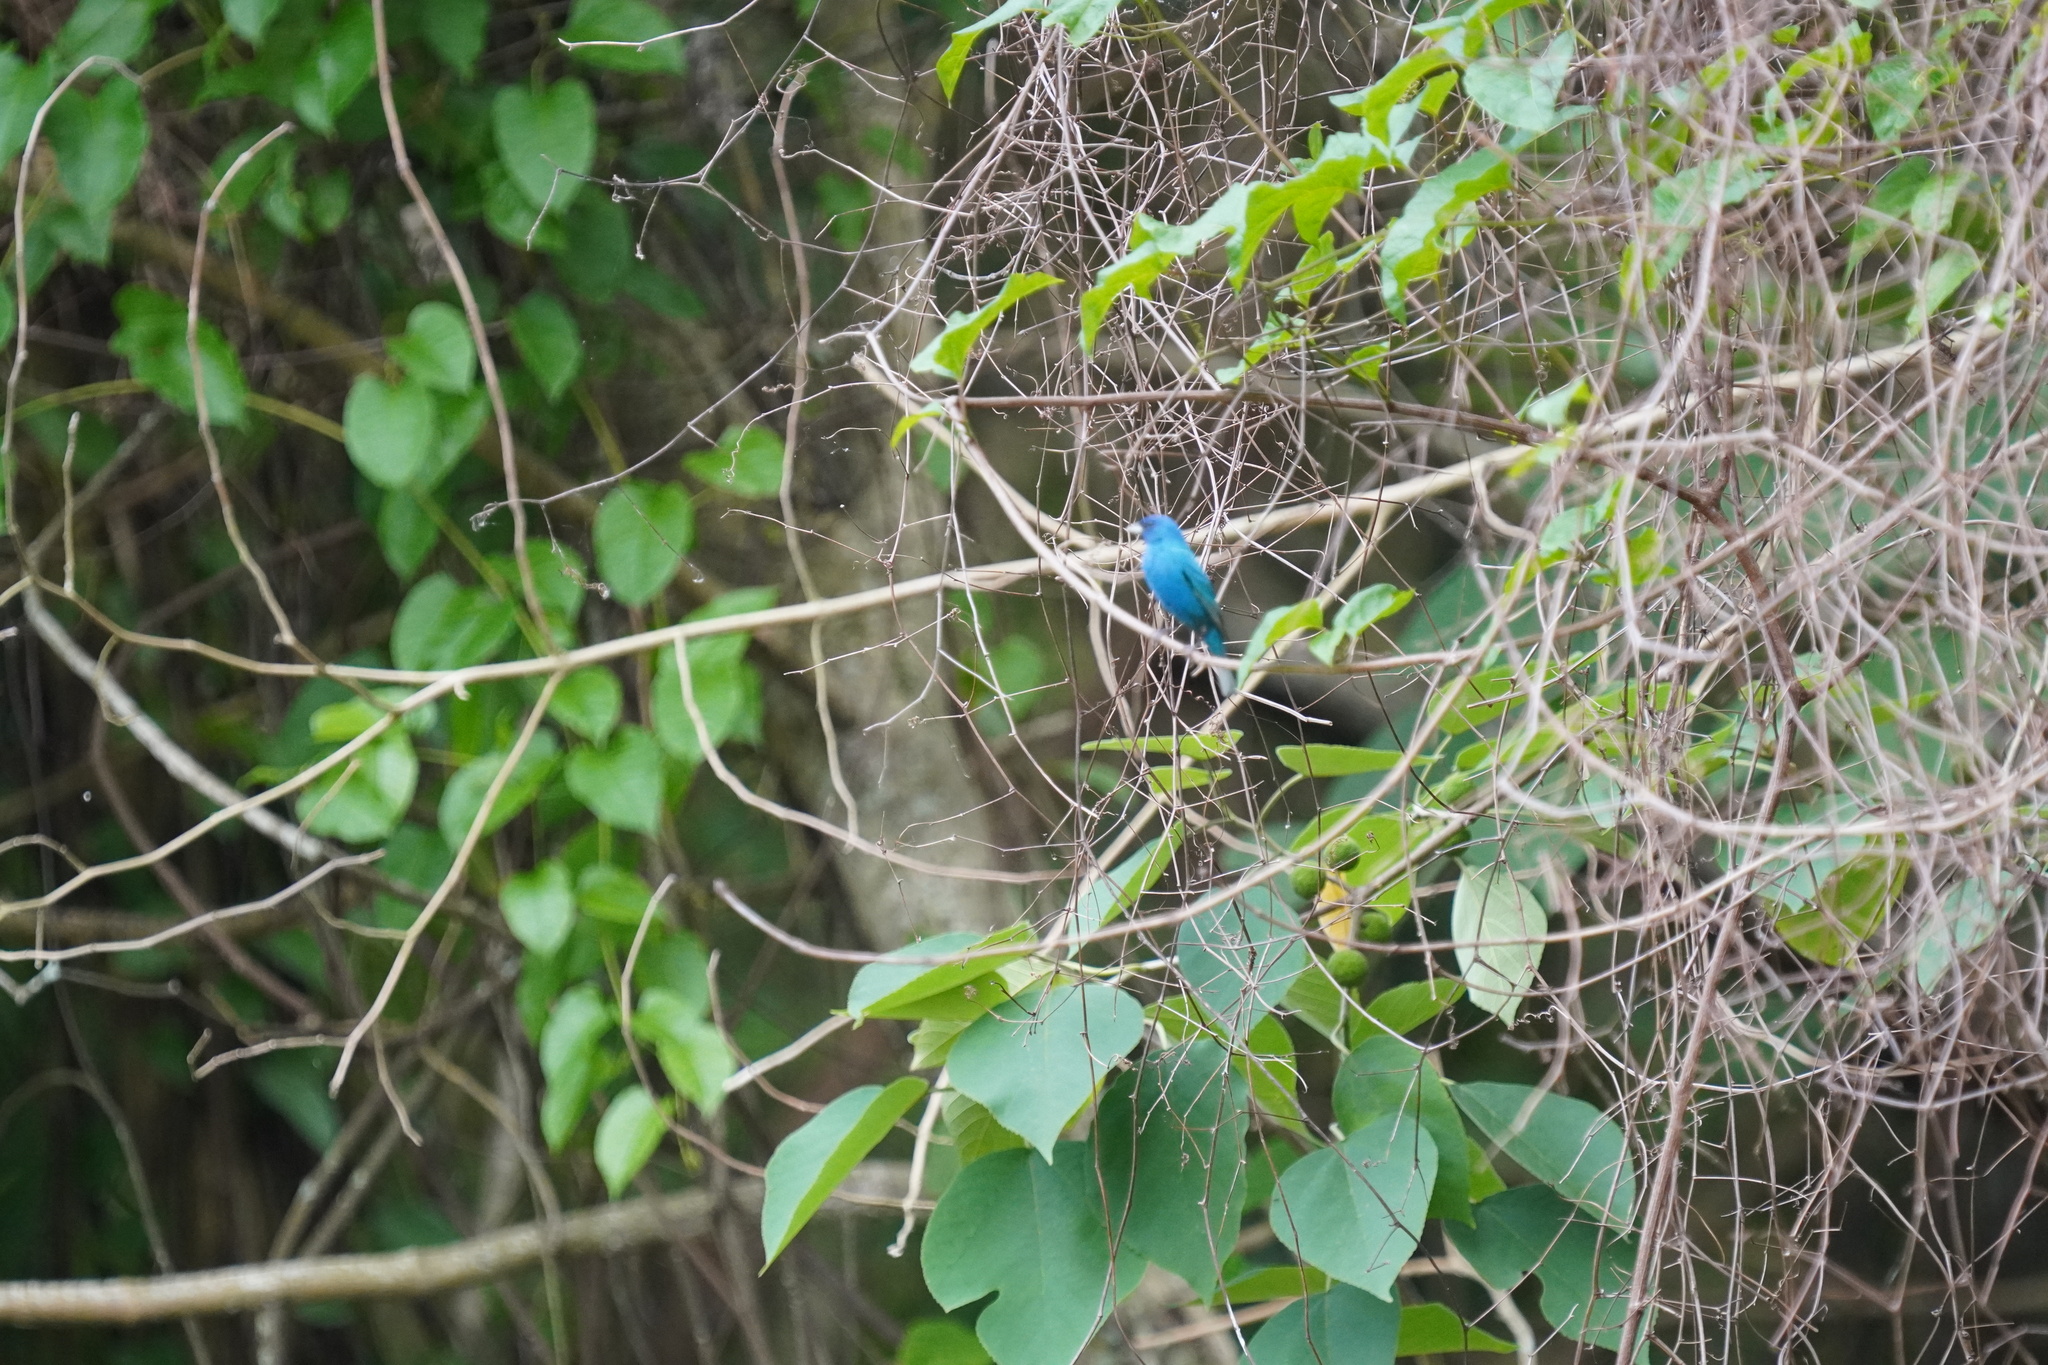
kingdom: Animalia
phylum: Chordata
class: Aves
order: Passeriformes
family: Cardinalidae
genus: Passerina
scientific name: Passerina cyanea
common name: Indigo bunting
